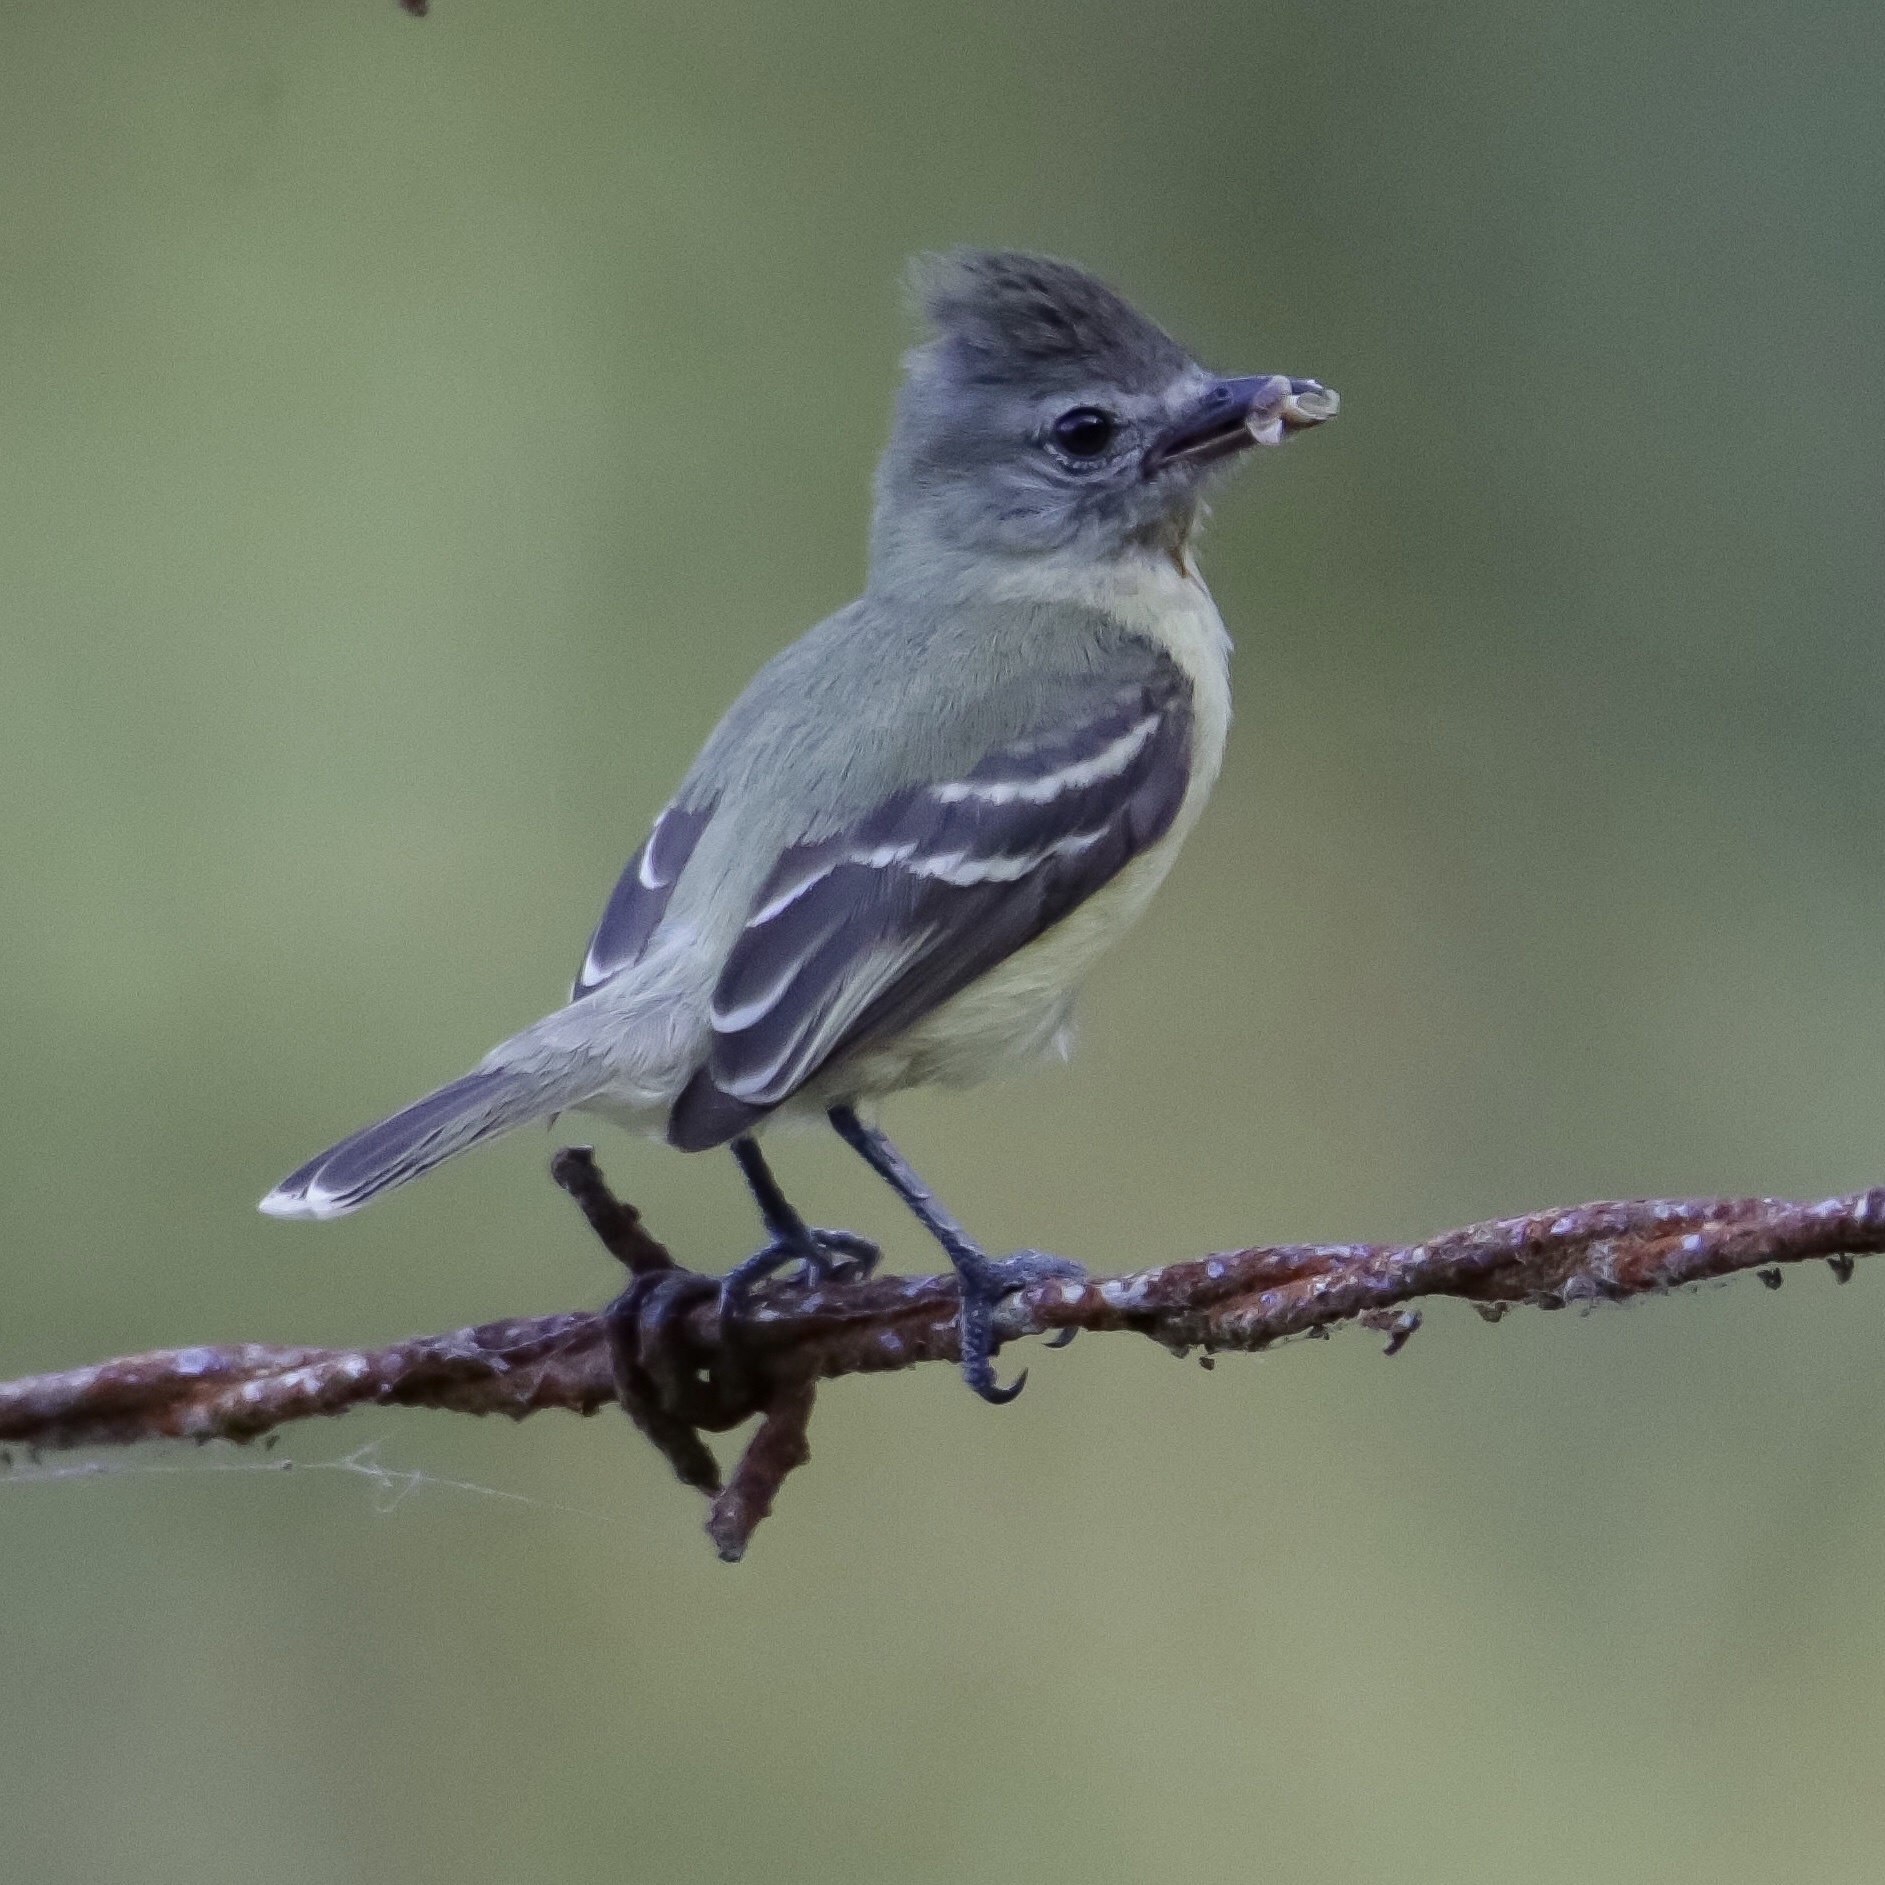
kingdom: Animalia
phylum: Chordata
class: Aves
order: Passeriformes
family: Tyrannidae
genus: Camptostoma
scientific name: Camptostoma obsoletum
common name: Southern beardless-tyrannulet
